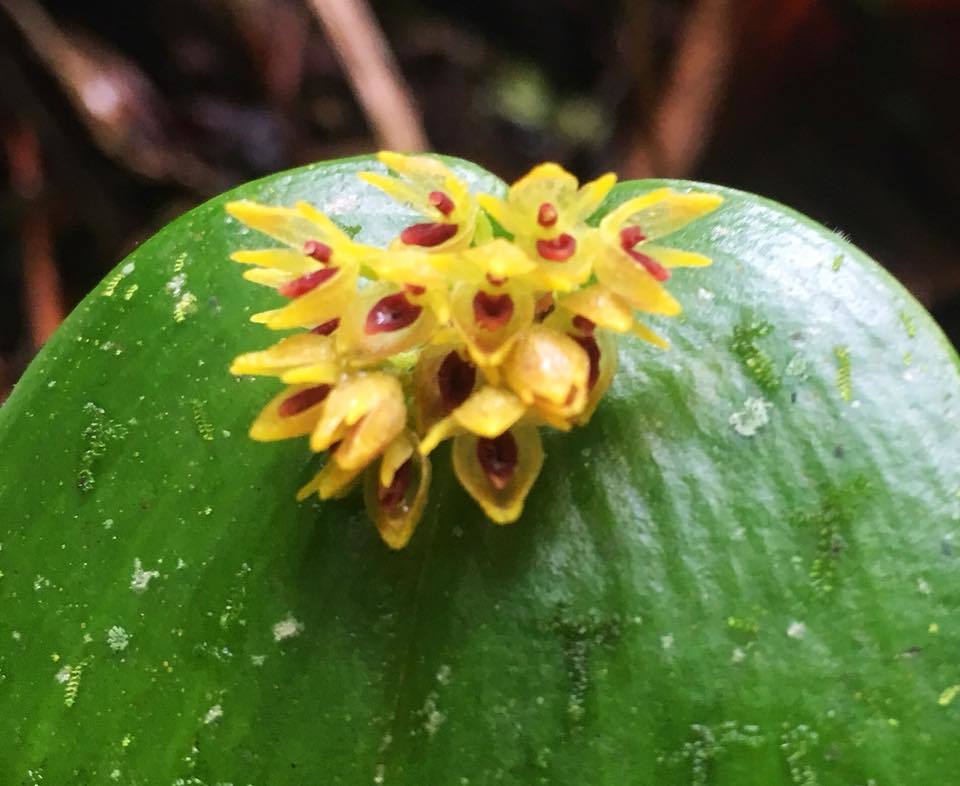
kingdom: Plantae
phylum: Tracheophyta
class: Liliopsida
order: Asparagales
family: Orchidaceae
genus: Pleurothallis
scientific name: Pleurothallis canaligera
